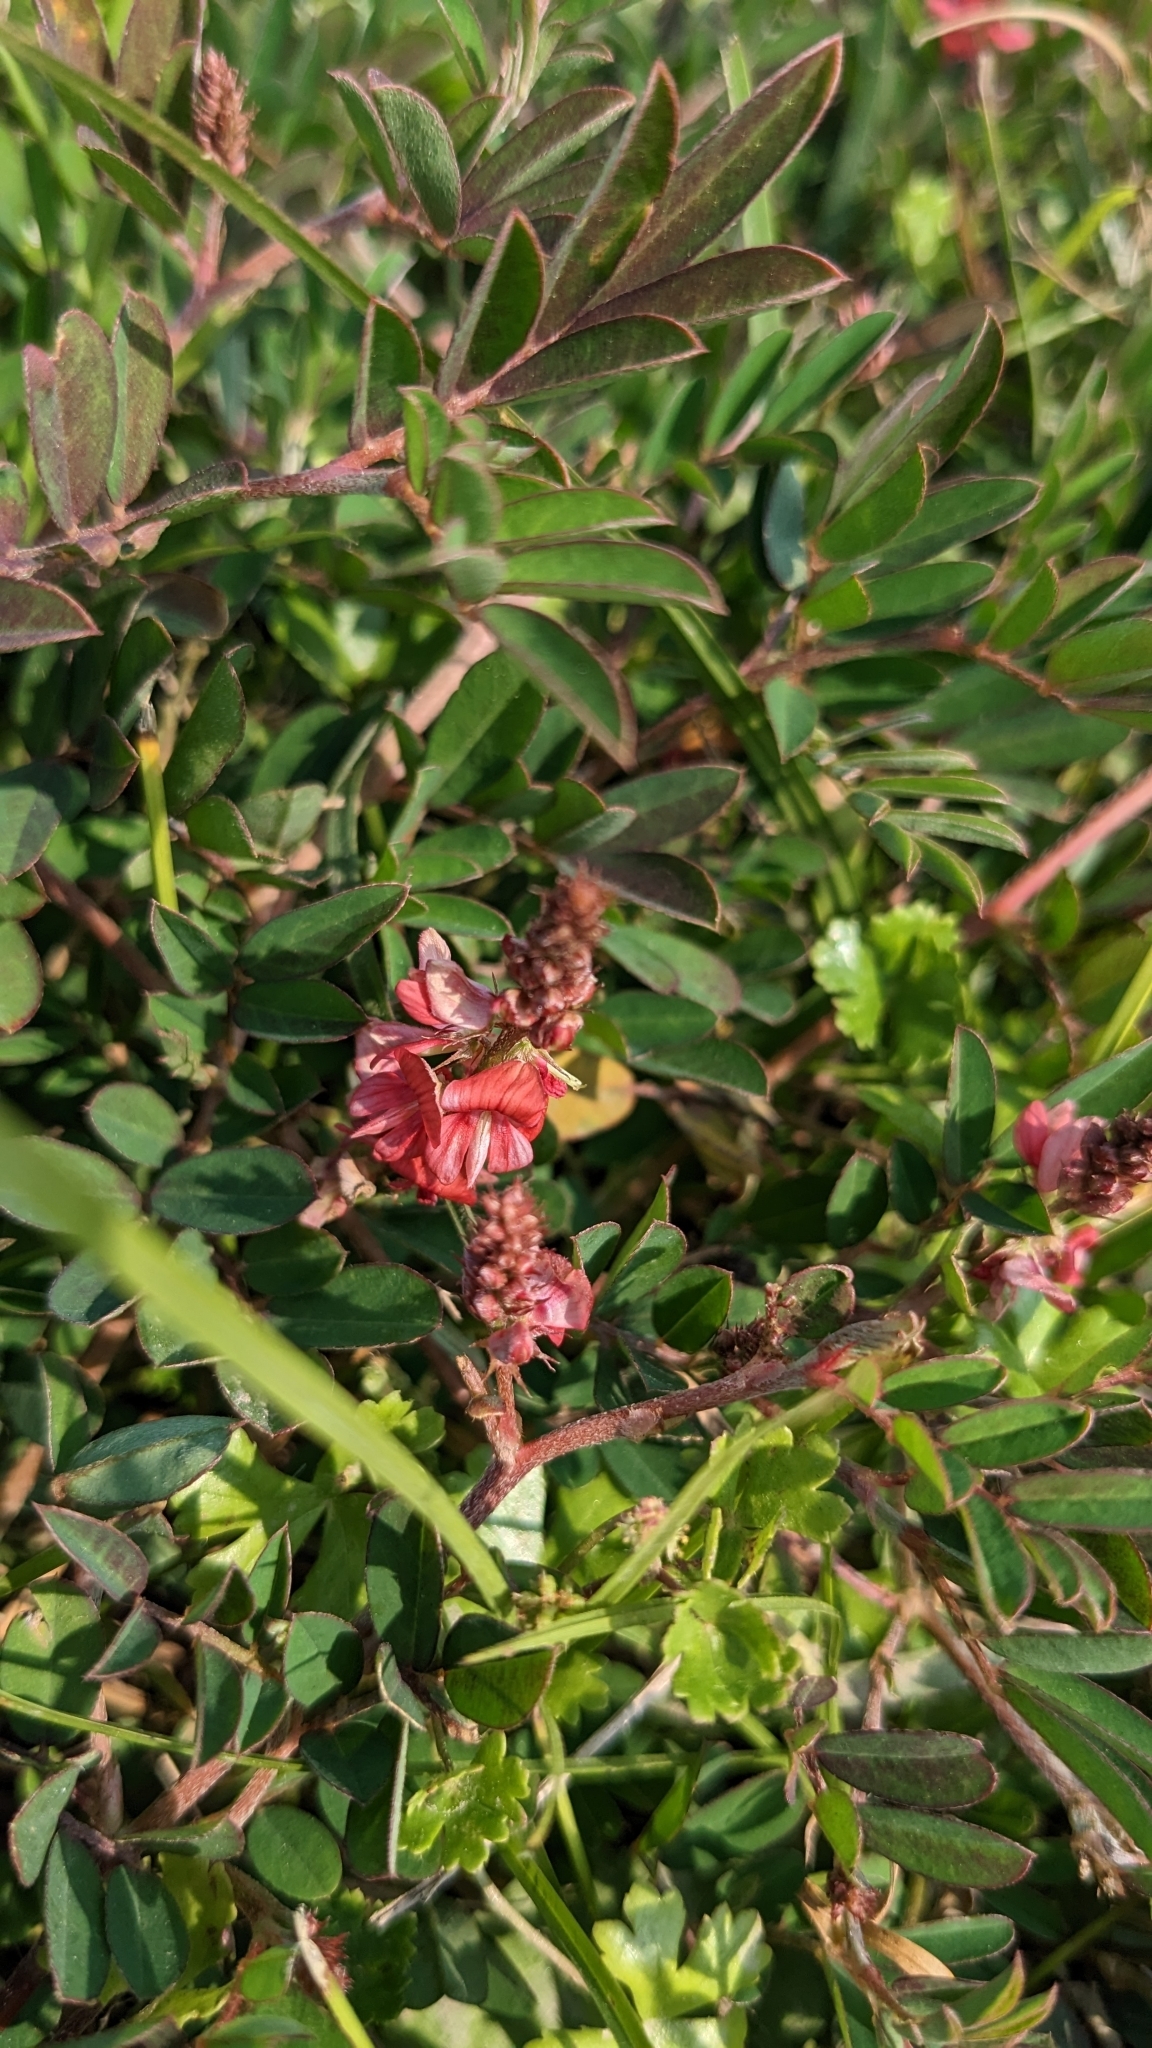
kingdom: Plantae
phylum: Tracheophyta
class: Magnoliopsida
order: Fabales
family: Fabaceae
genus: Indigofera
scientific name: Indigofera hendecaphylla
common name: Trailing indigo
